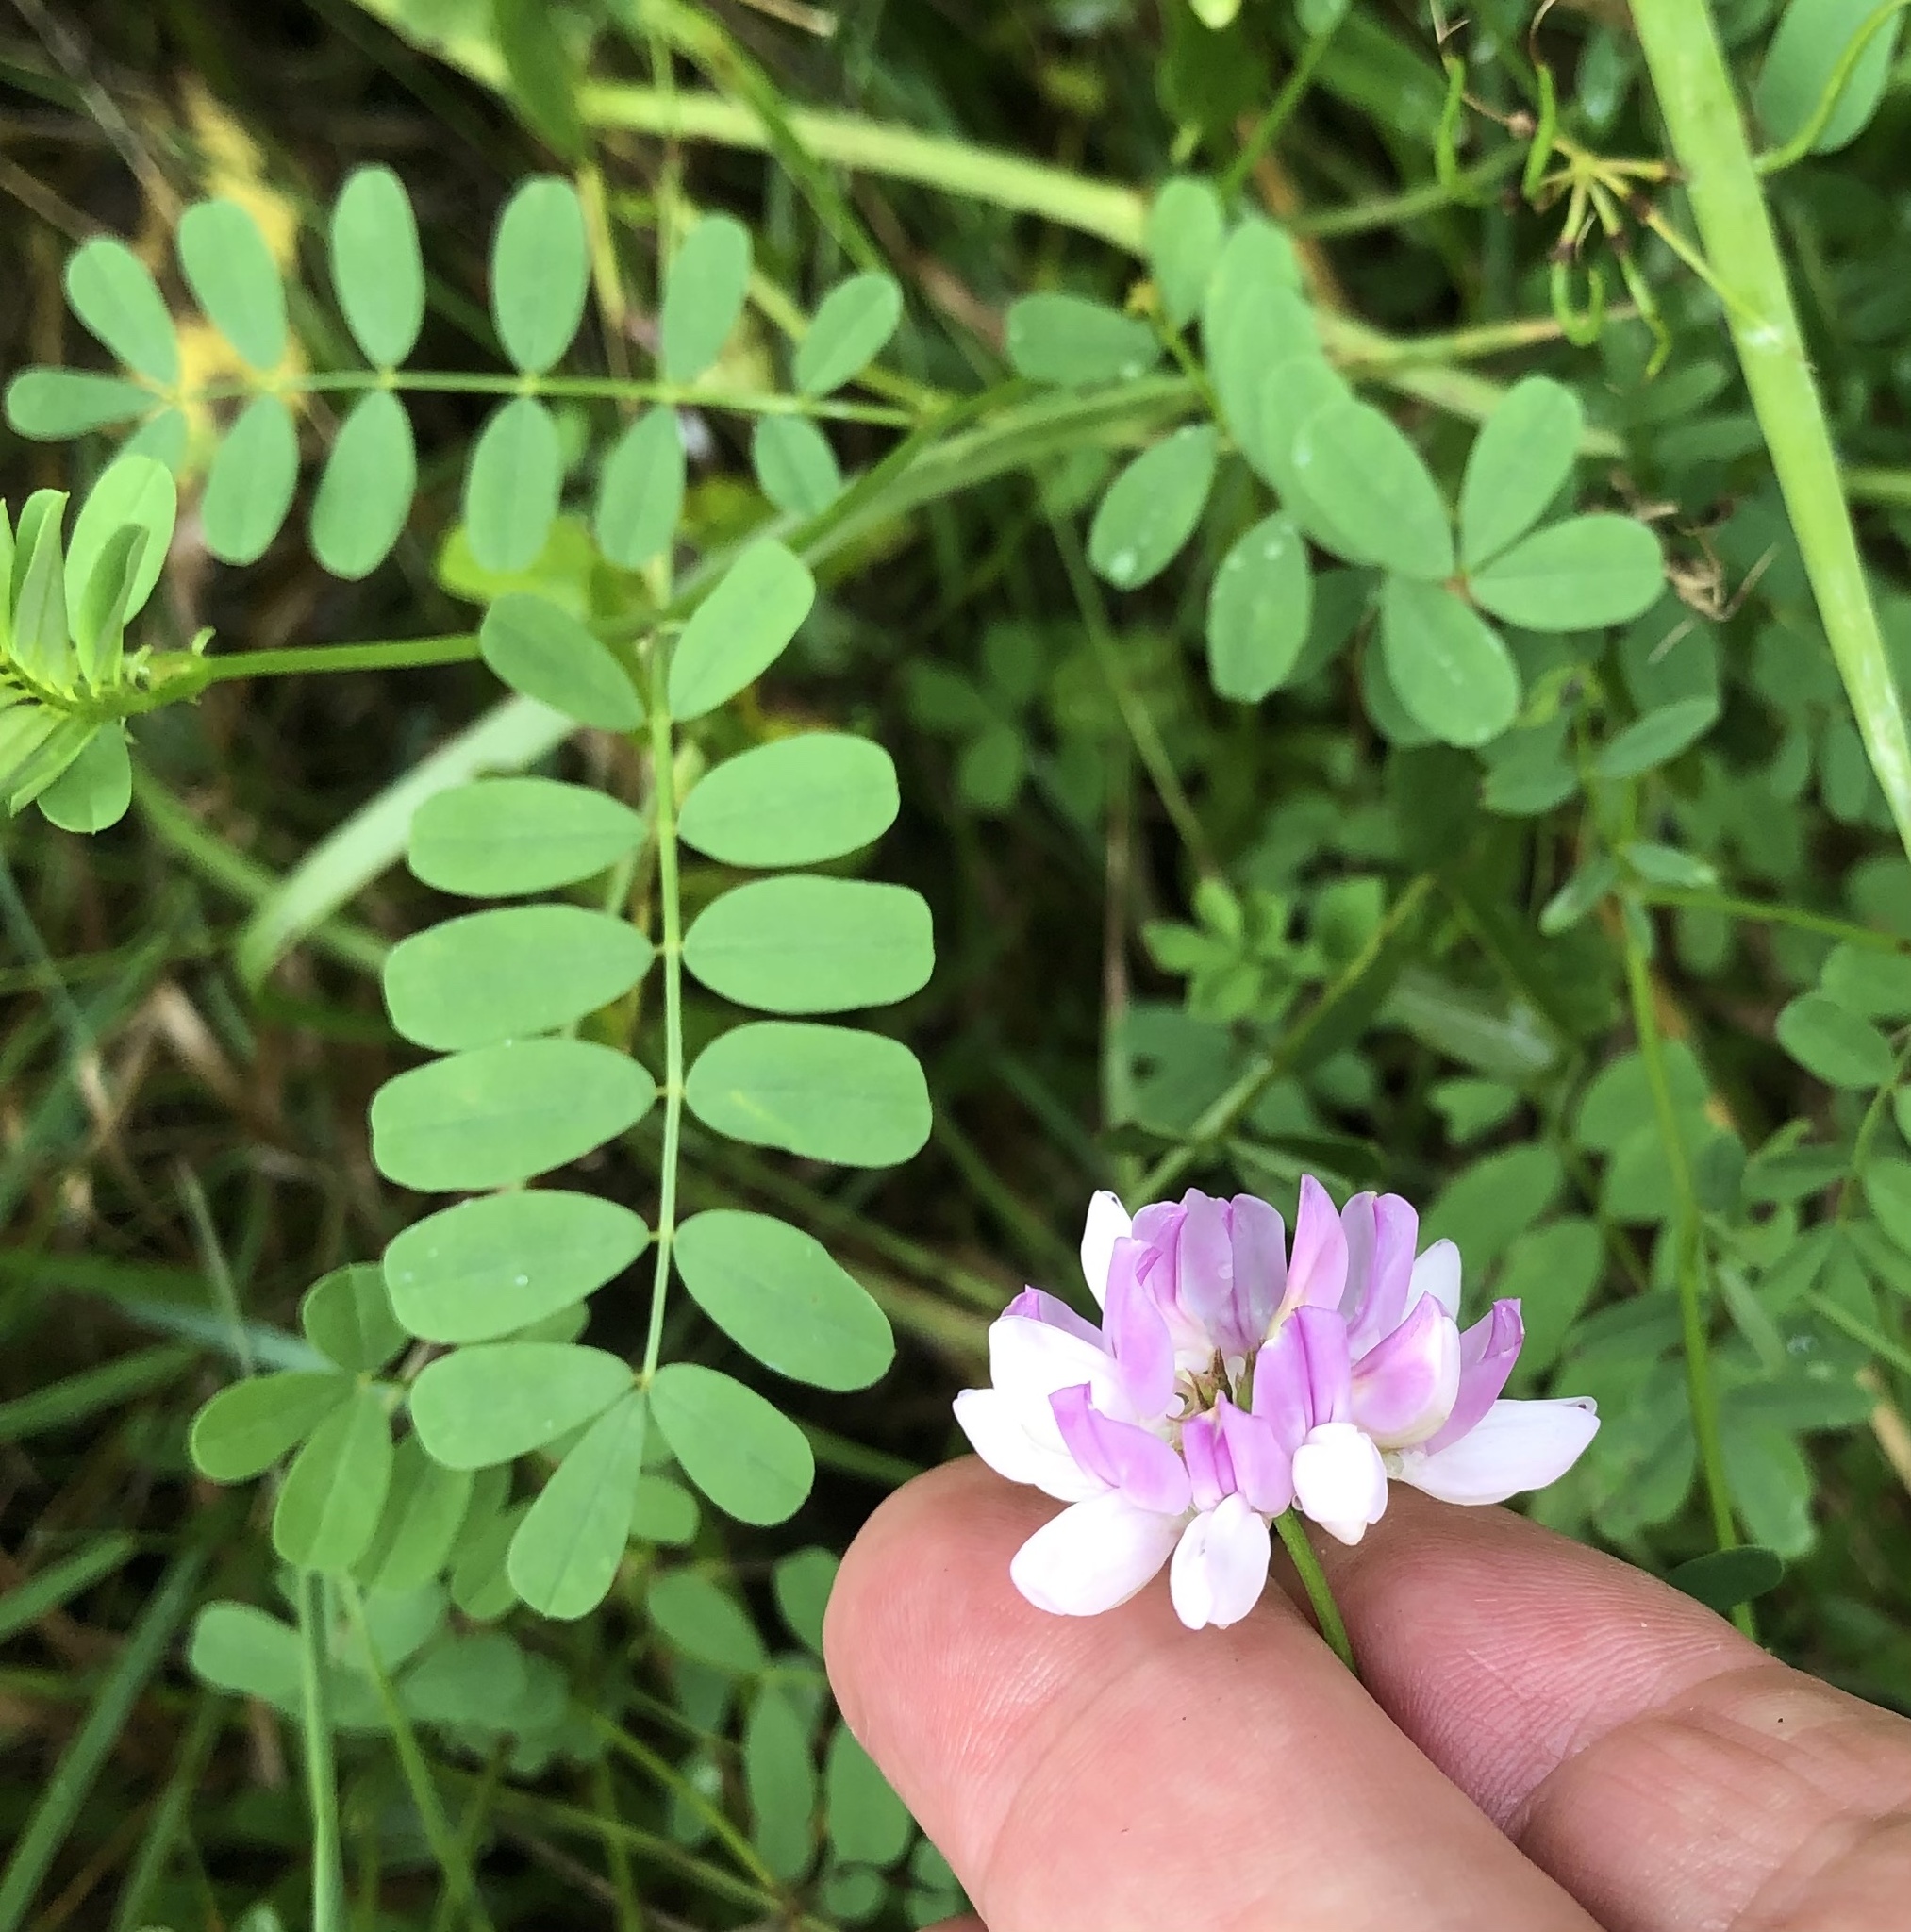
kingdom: Plantae
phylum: Tracheophyta
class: Magnoliopsida
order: Fabales
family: Fabaceae
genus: Coronilla
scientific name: Coronilla varia
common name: Crownvetch
